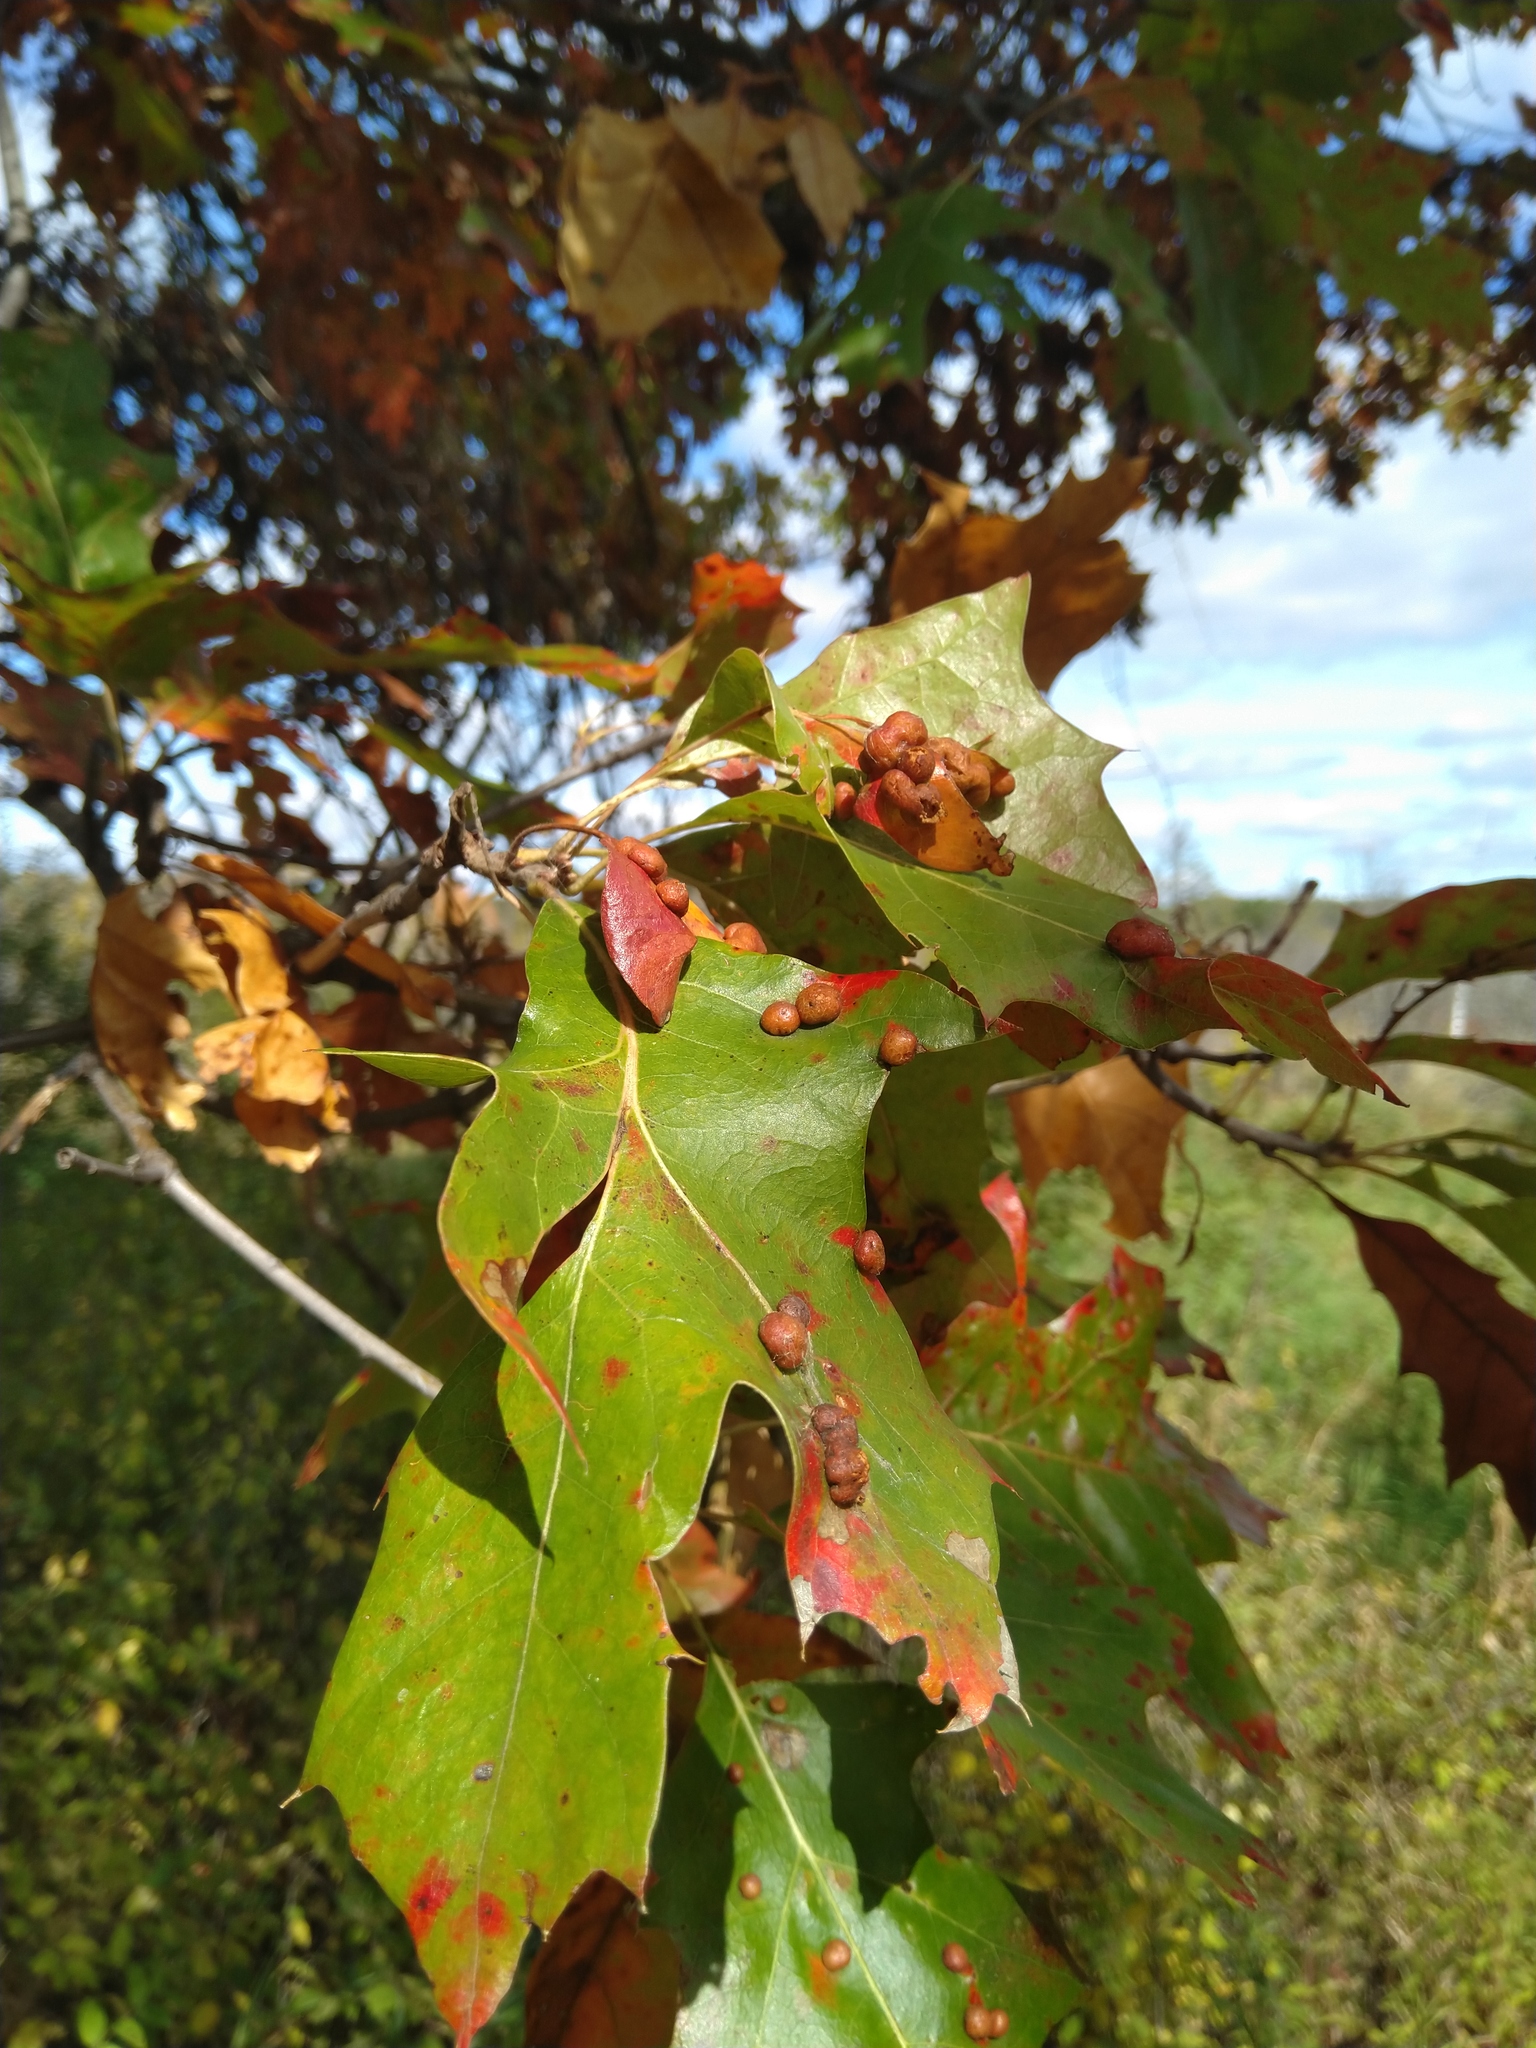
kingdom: Animalia
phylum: Arthropoda
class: Insecta
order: Diptera
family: Cecidomyiidae
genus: Polystepha
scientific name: Polystepha pilulae
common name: Oak leaf gall midge
